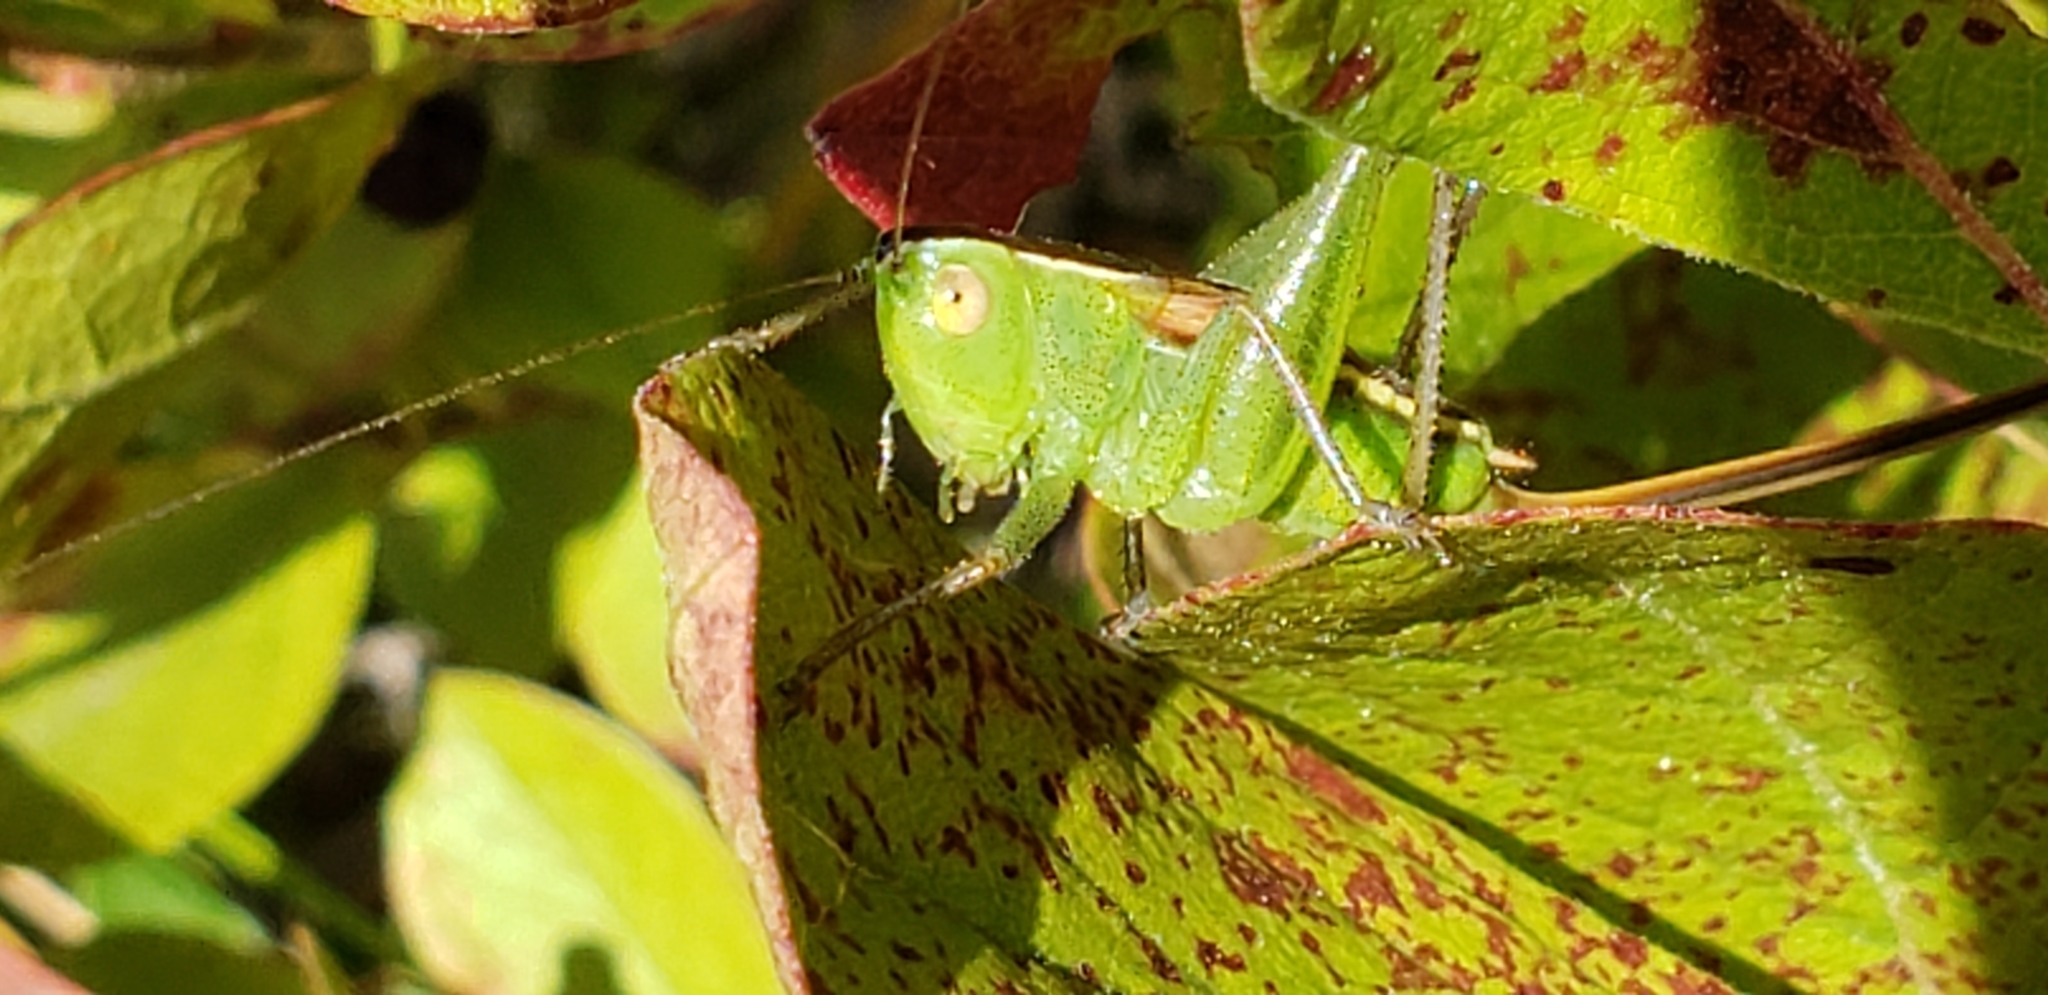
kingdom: Animalia
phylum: Arthropoda
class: Insecta
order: Orthoptera
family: Tettigoniidae
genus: Conocephalus
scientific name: Conocephalus strictus
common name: Straight-lanced katydid
